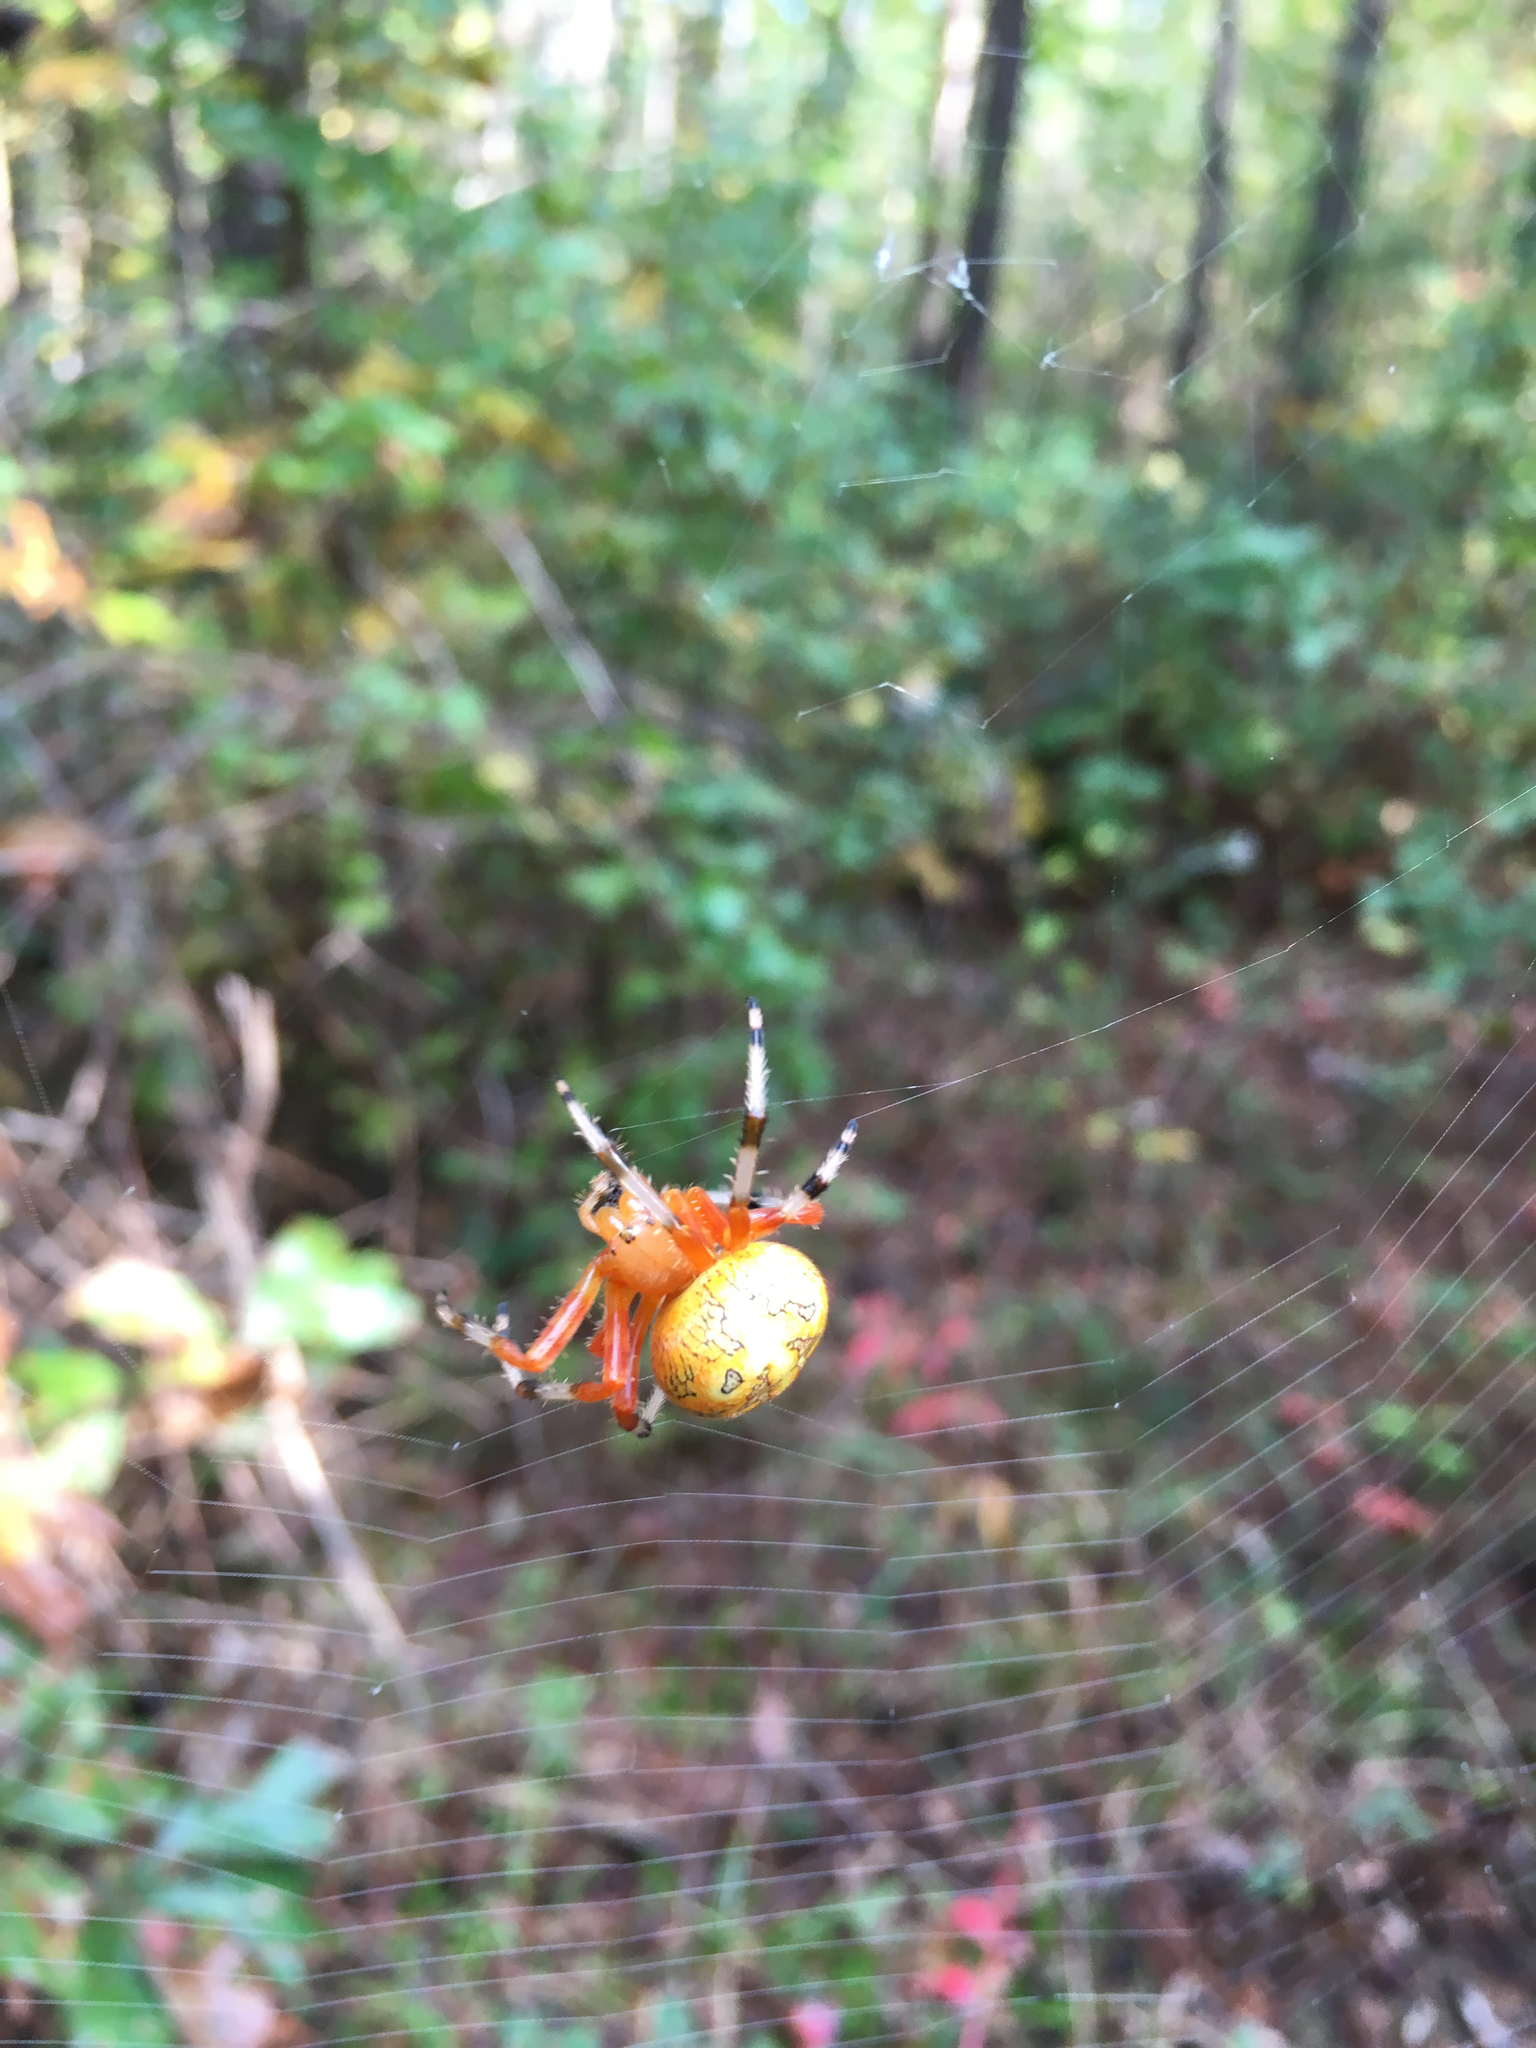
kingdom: Animalia
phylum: Arthropoda
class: Arachnida
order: Araneae
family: Araneidae
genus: Araneus
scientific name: Araneus marmoreus
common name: Marbled orbweaver
